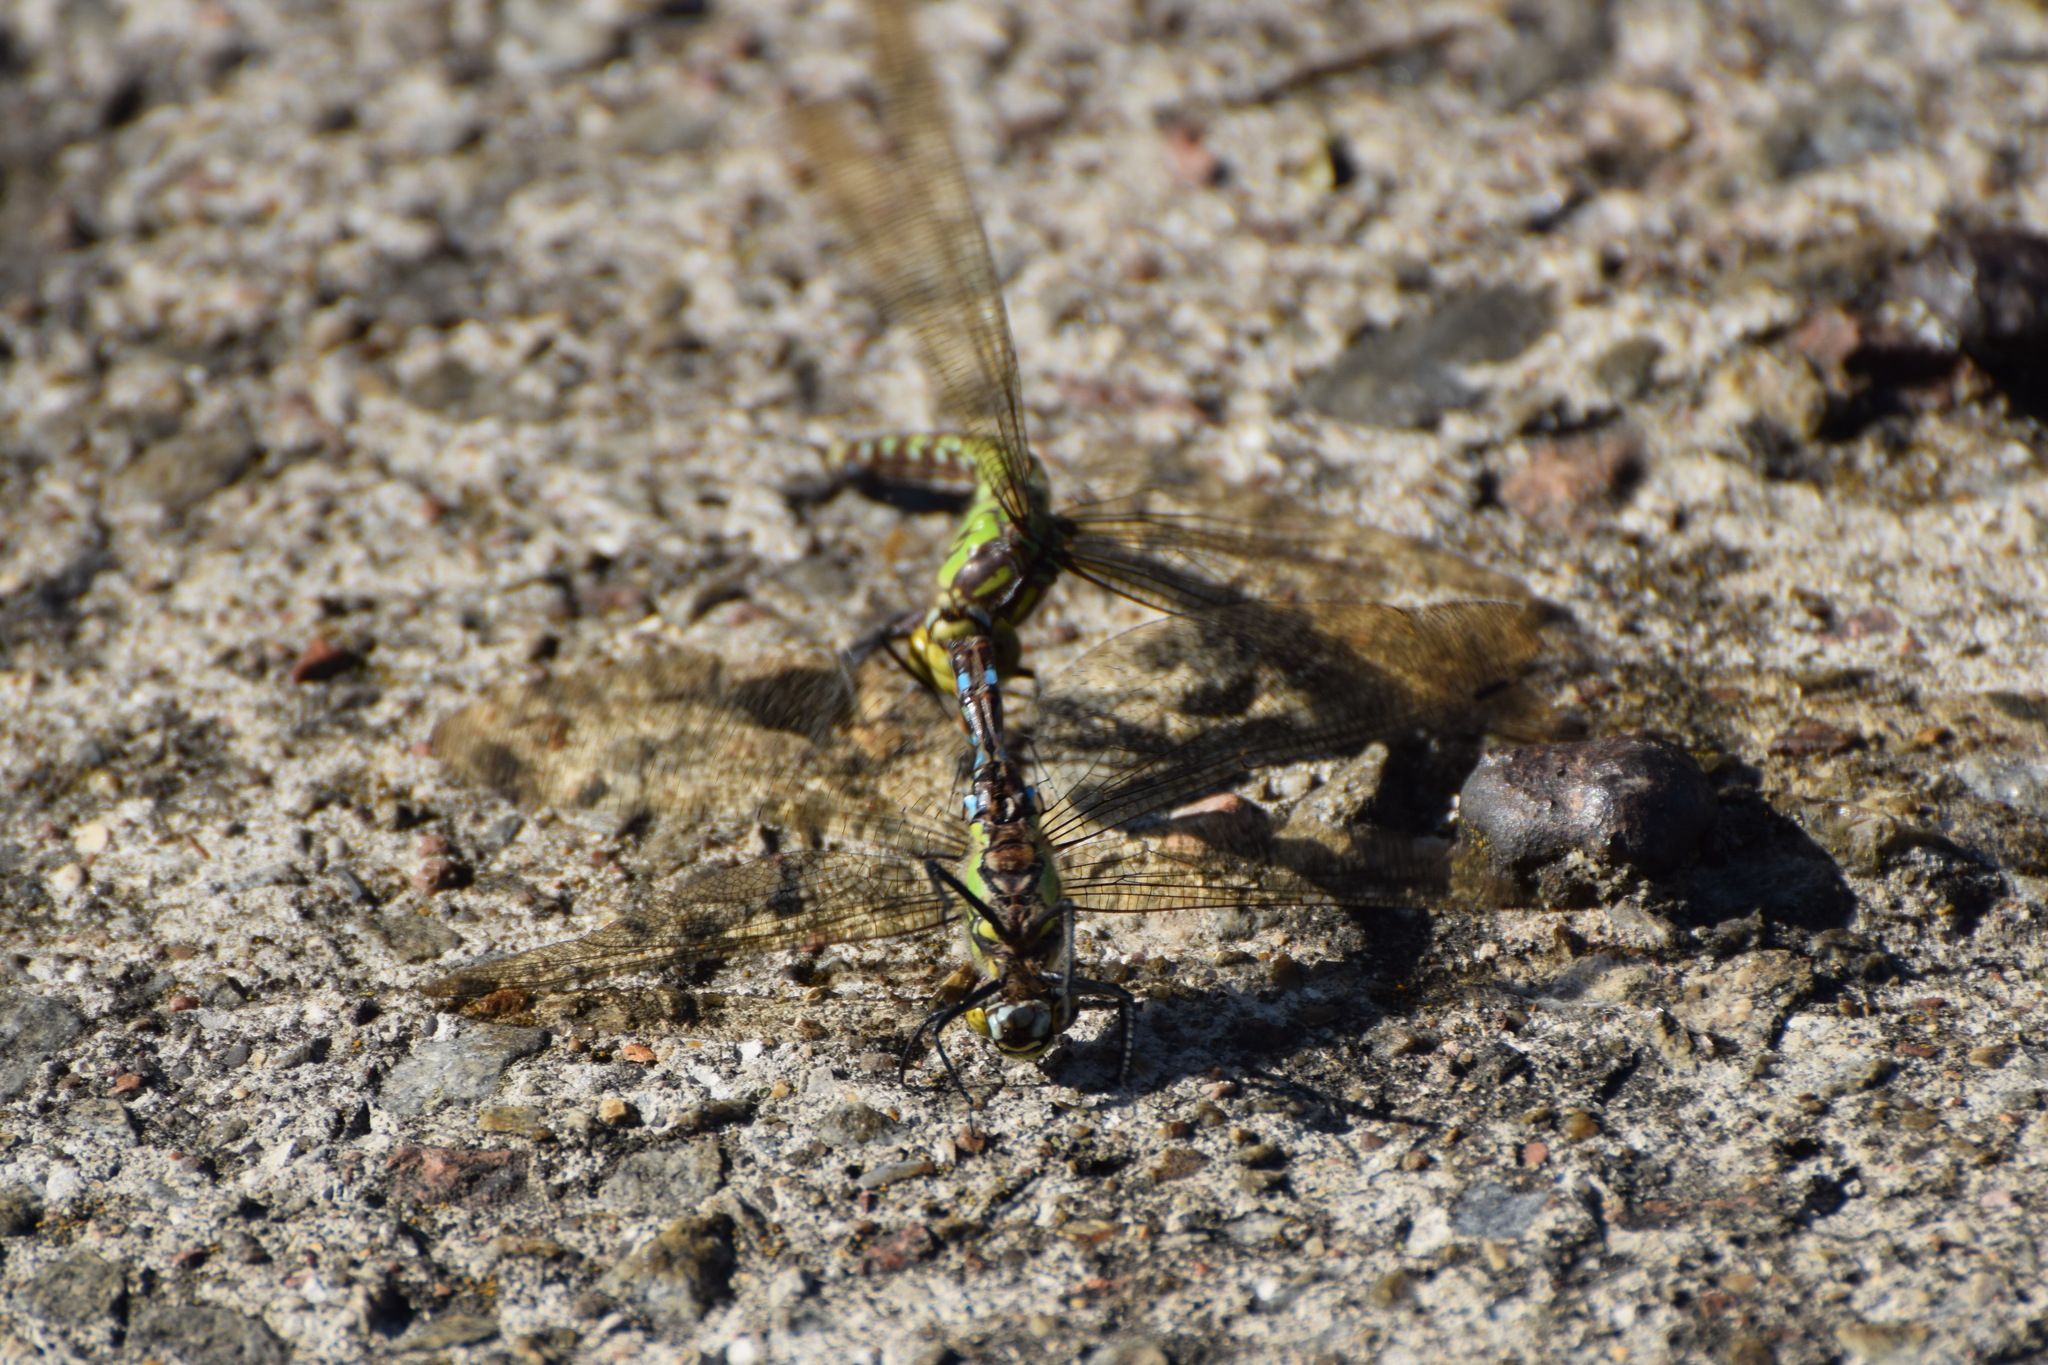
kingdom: Animalia
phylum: Arthropoda
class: Insecta
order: Odonata
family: Aeshnidae
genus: Aeshna
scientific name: Aeshna cyanea
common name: Southern hawker
